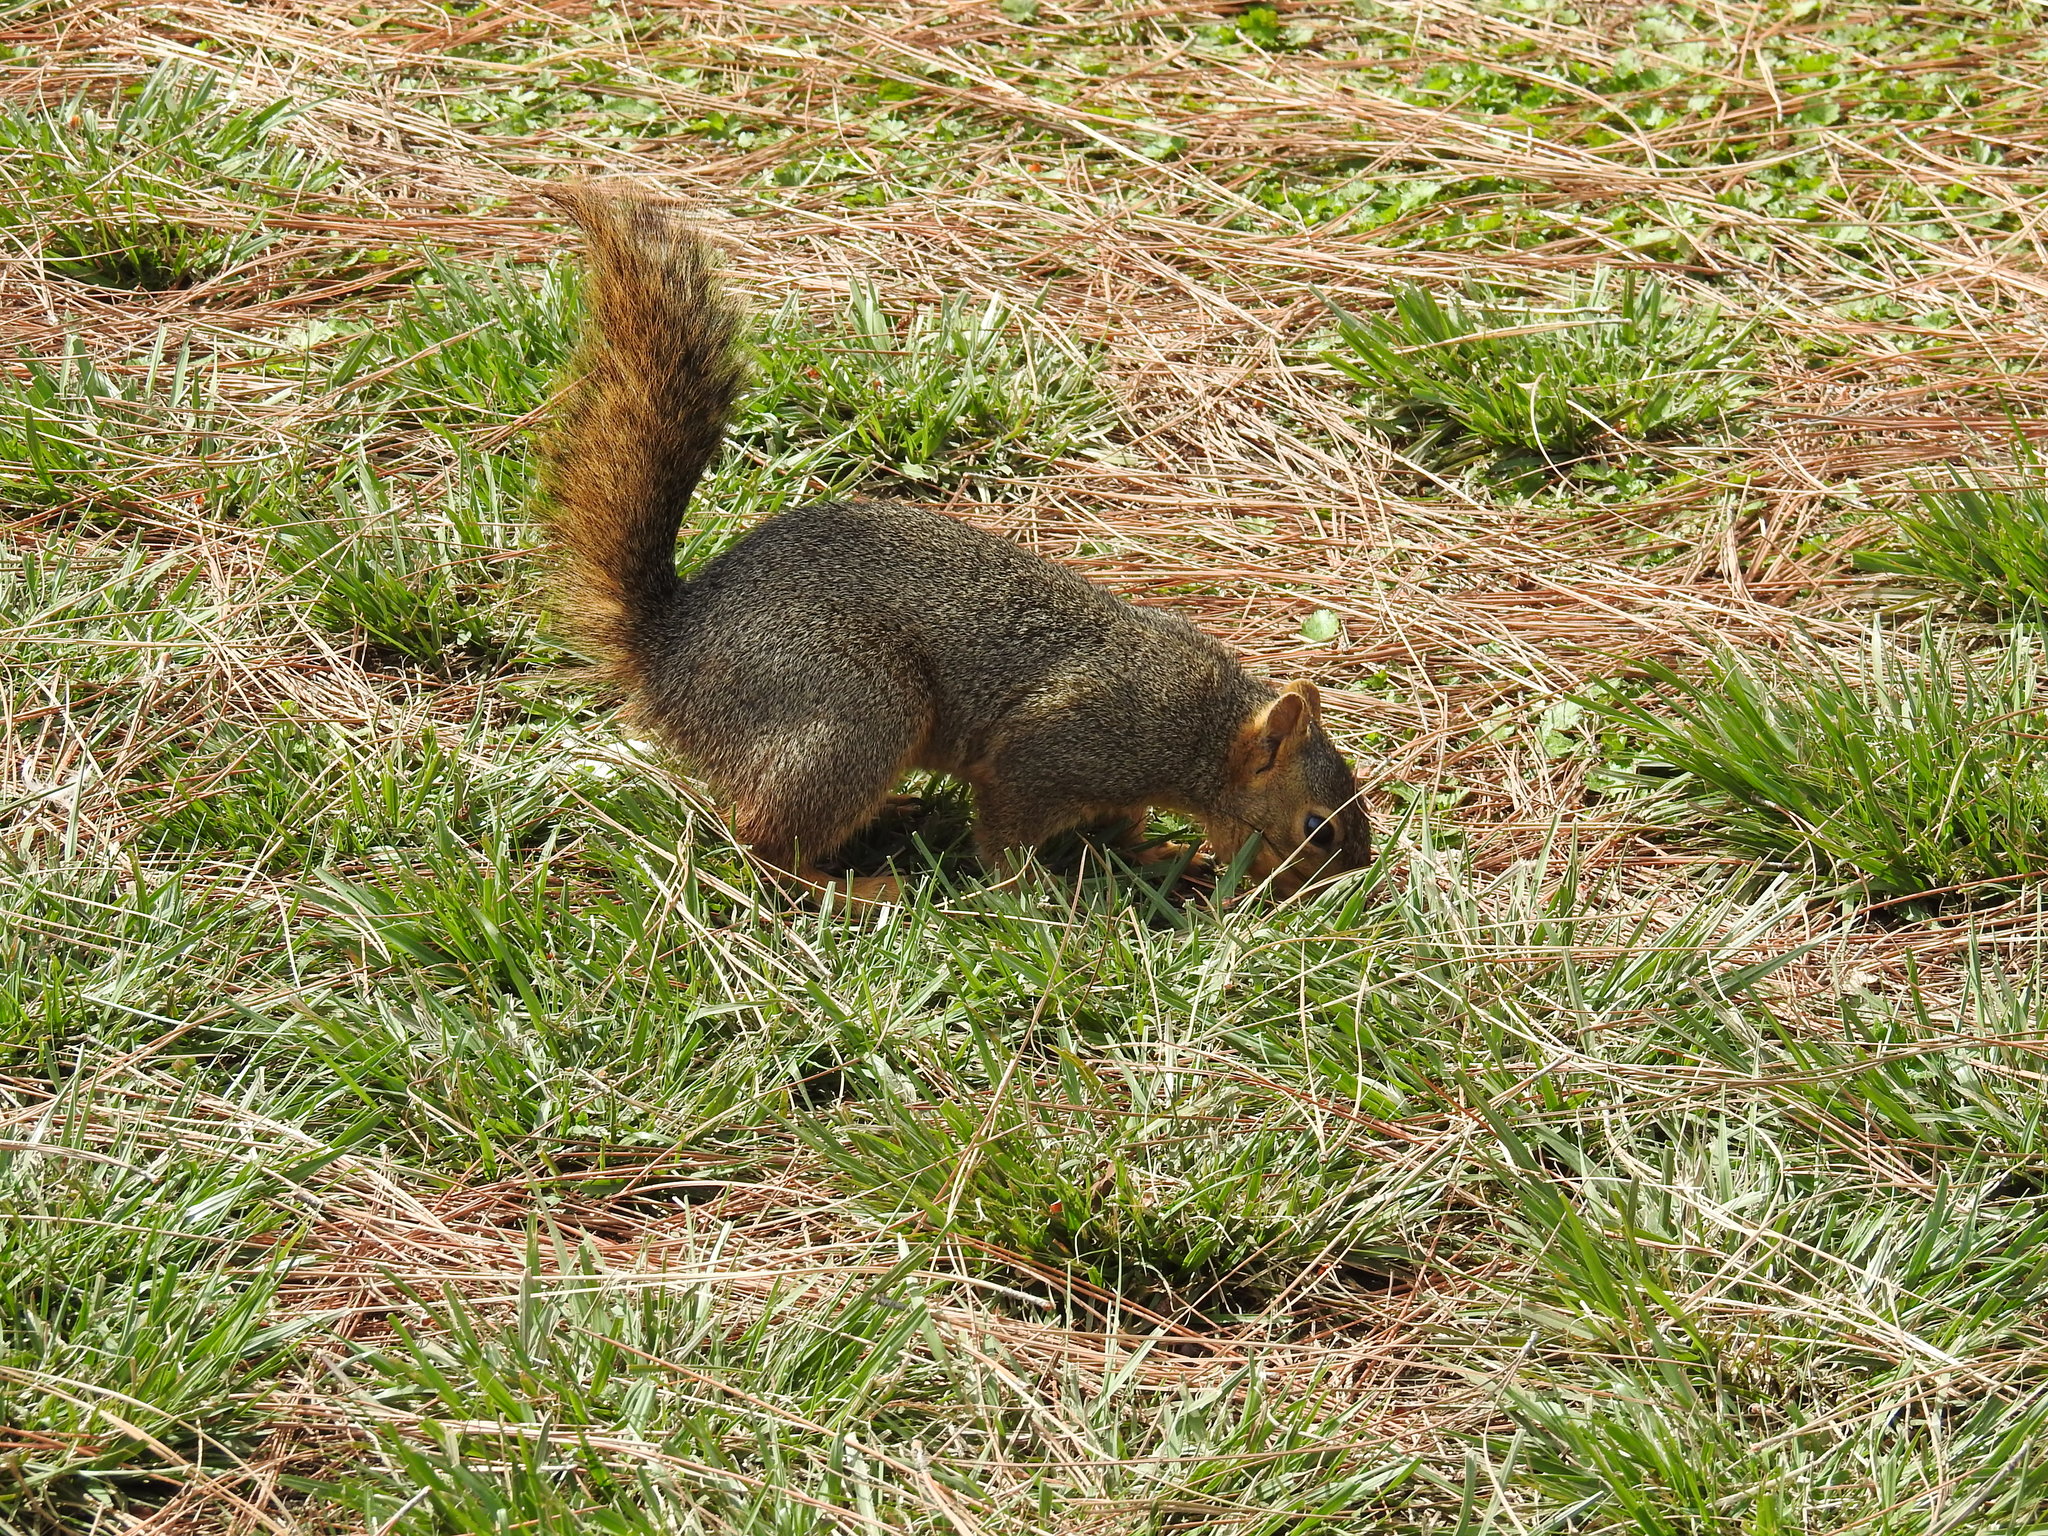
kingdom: Animalia
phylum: Chordata
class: Mammalia
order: Rodentia
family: Sciuridae
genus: Sciurus
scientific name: Sciurus niger
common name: Fox squirrel
